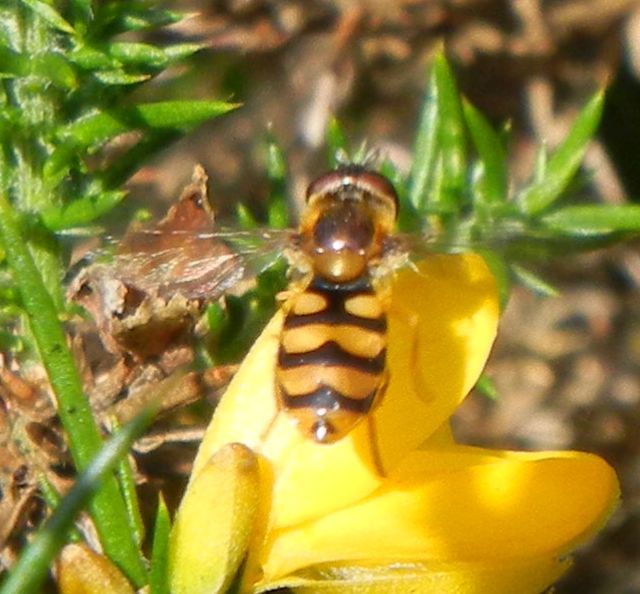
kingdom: Animalia
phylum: Arthropoda
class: Insecta
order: Diptera
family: Syrphidae
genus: Eupeodes
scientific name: Eupeodes latifasciatus
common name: Variable aphideater
